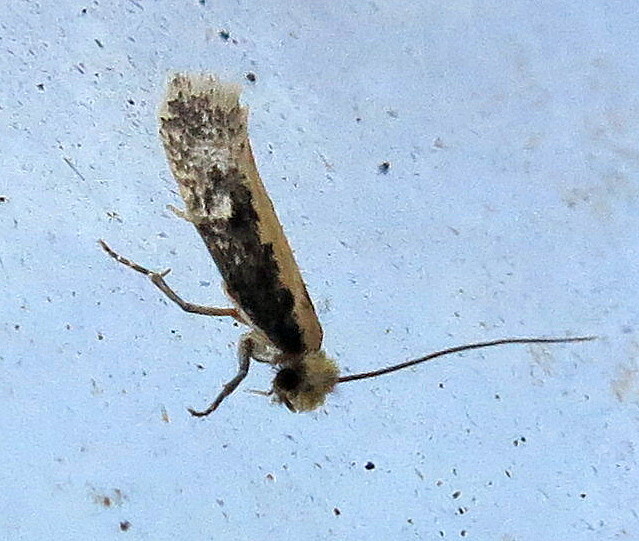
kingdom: Animalia
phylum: Arthropoda
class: Insecta
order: Lepidoptera
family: Tineidae
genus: Monopis
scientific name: Monopis crocicapitella
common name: Moth
